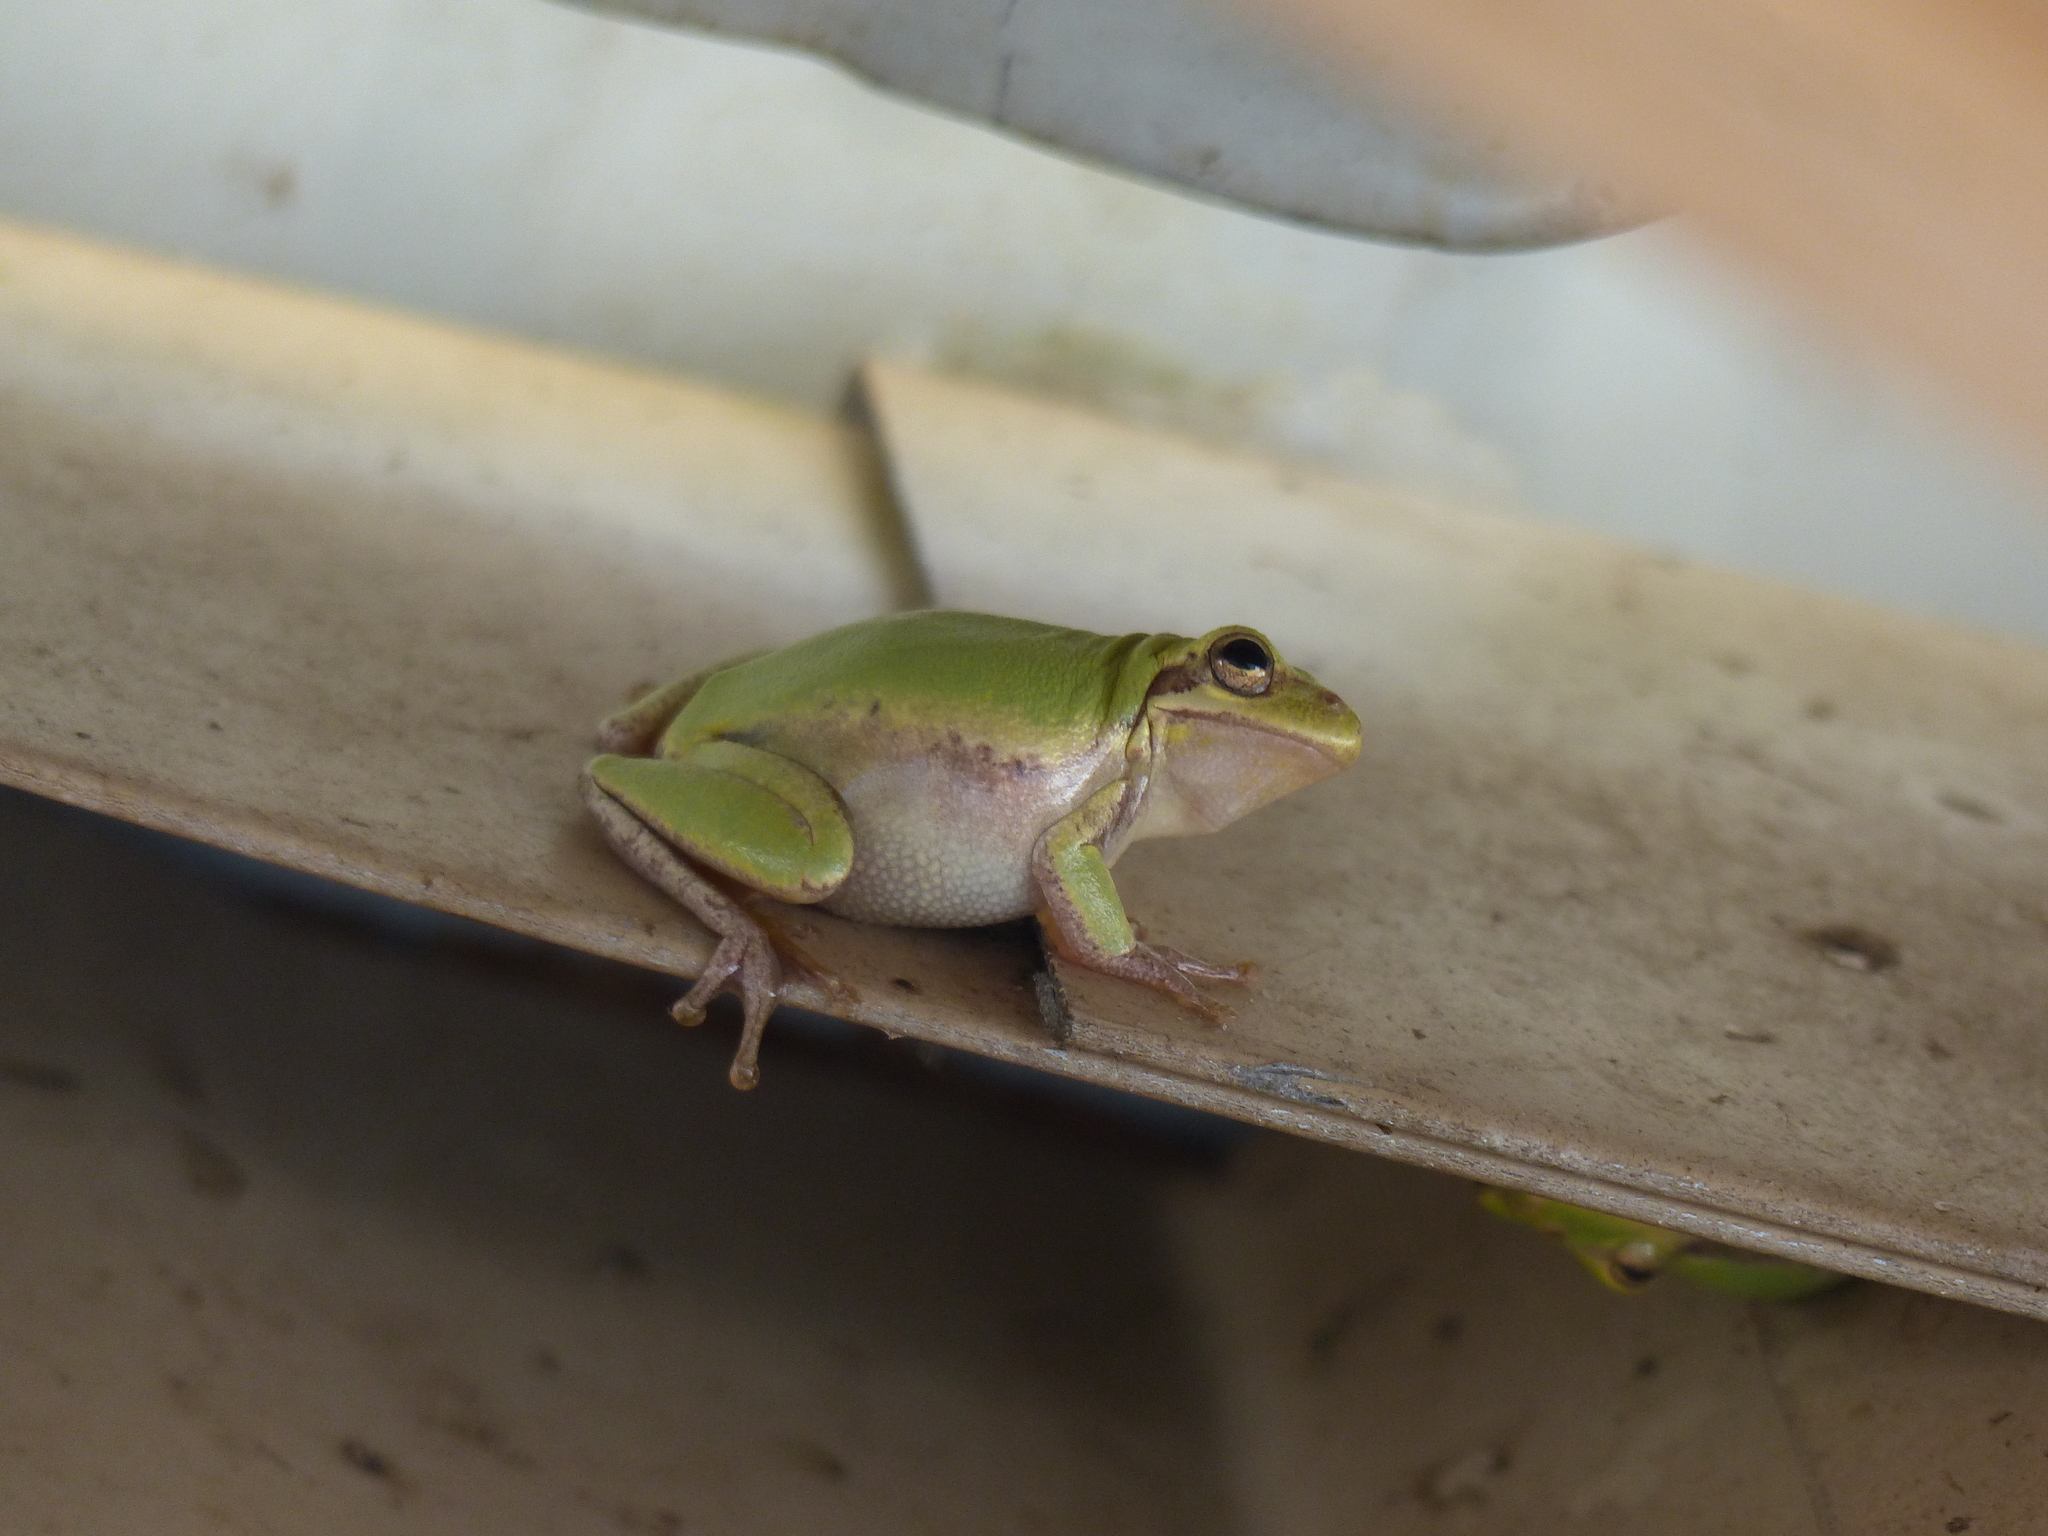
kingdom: Animalia
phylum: Chordata
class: Amphibia
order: Anura
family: Hylidae
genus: Dryophytes
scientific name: Dryophytes squirellus
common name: Squirrel treefrog
